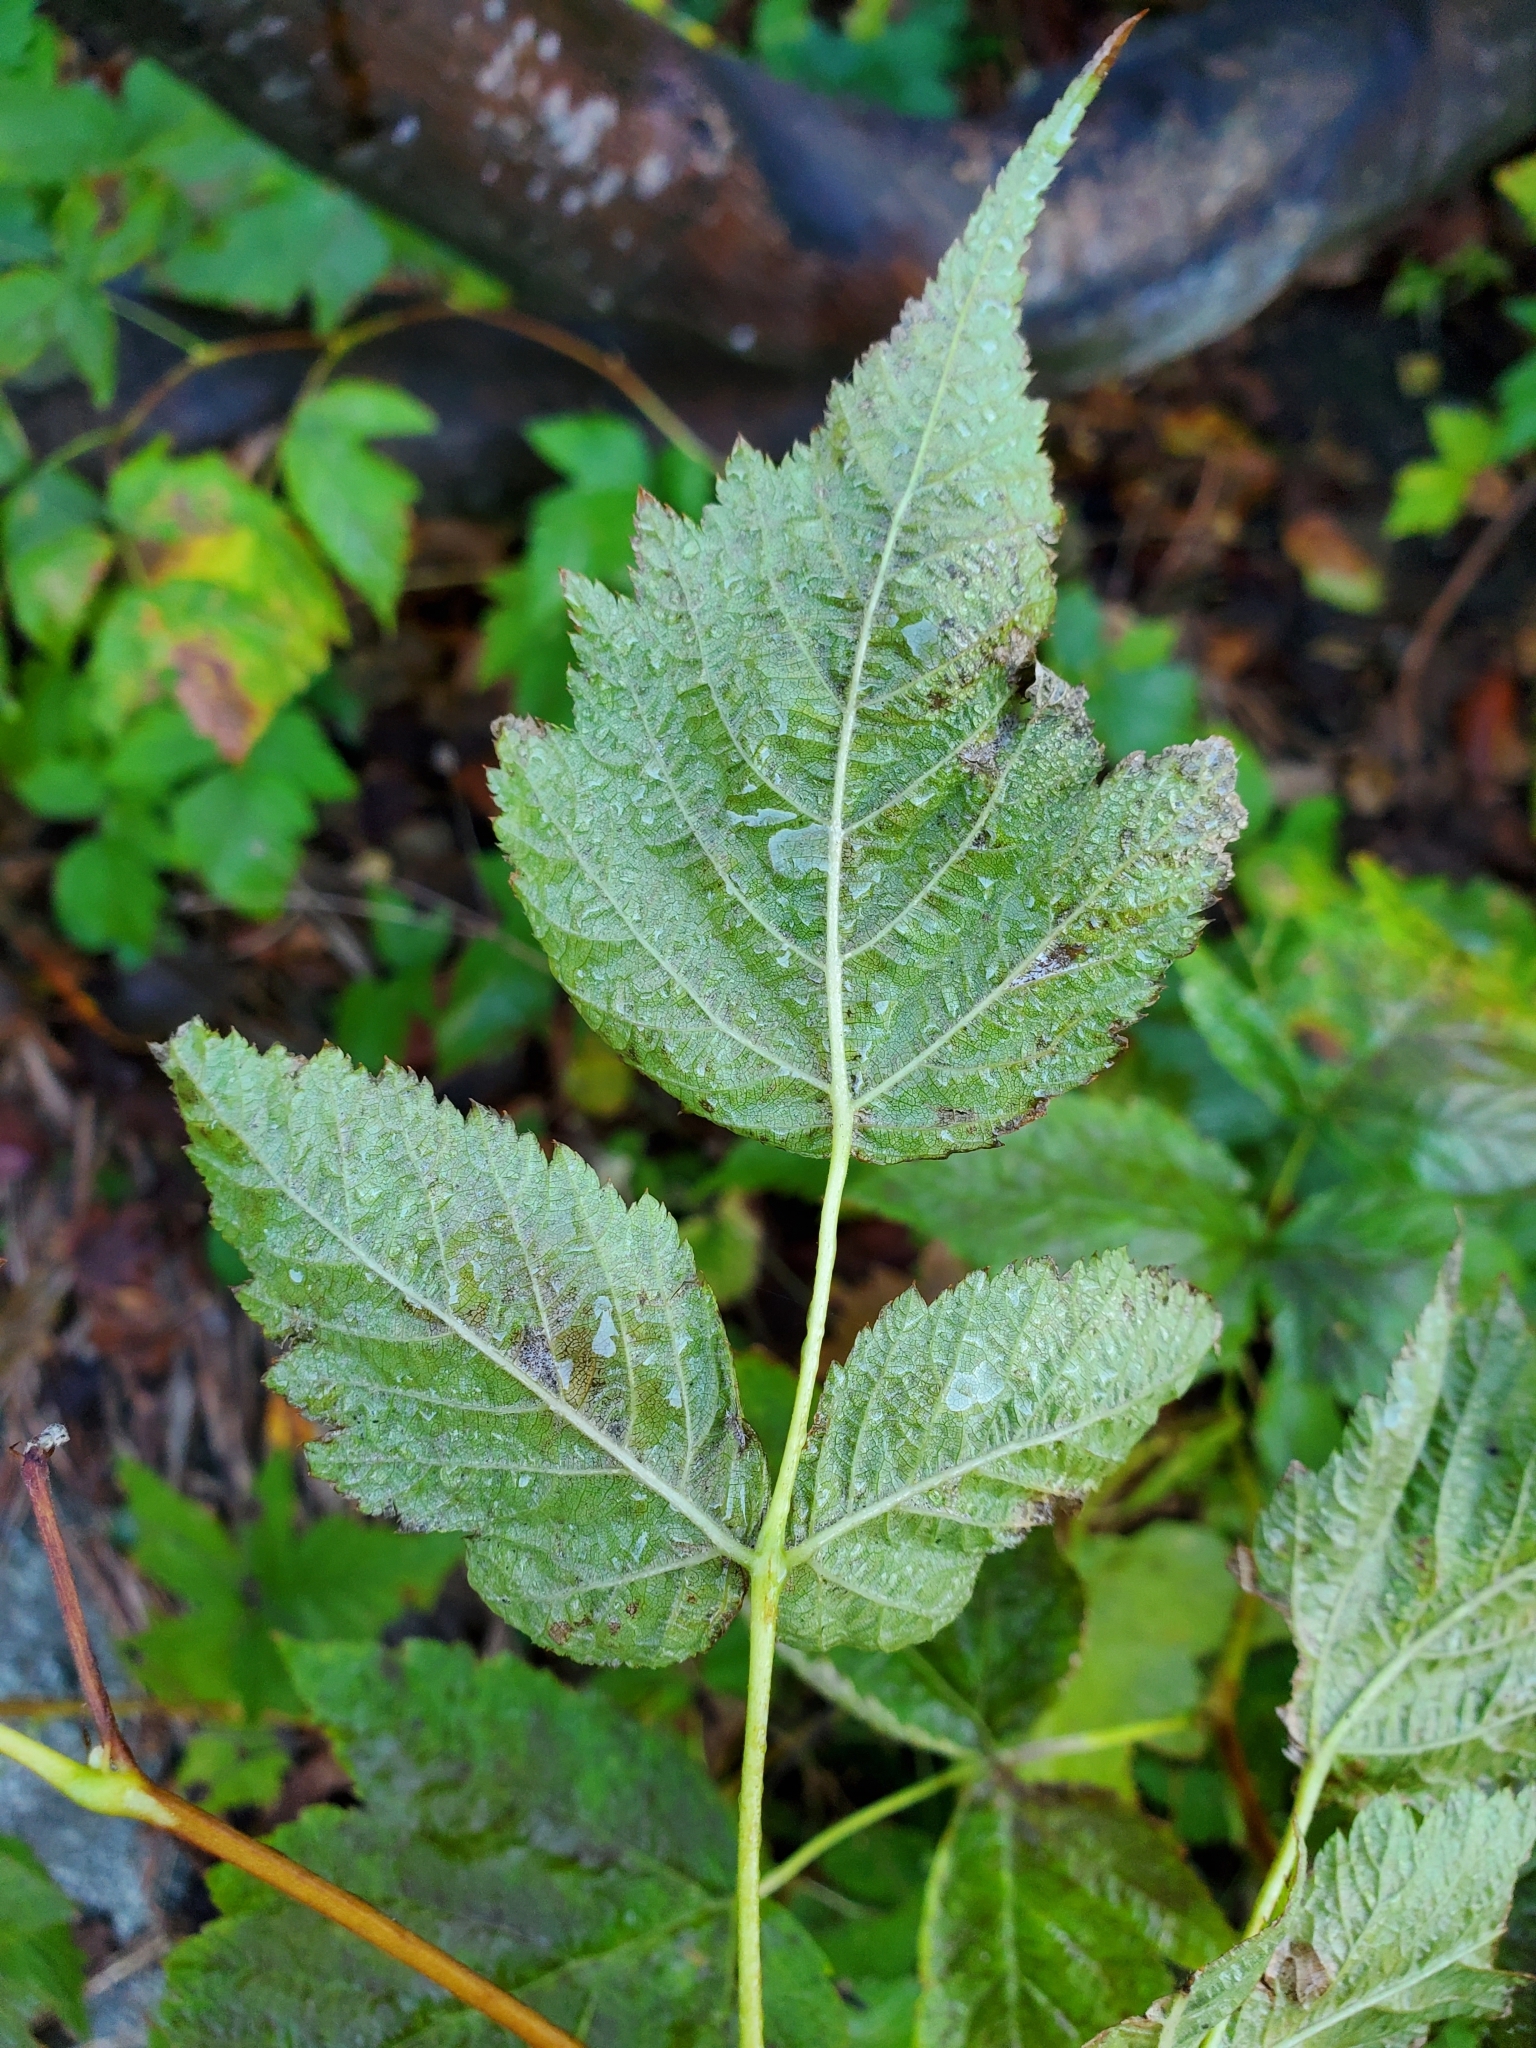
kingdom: Plantae
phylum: Tracheophyta
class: Magnoliopsida
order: Rosales
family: Rosaceae
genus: Rubus
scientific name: Rubus spectabilis
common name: Salmonberry
